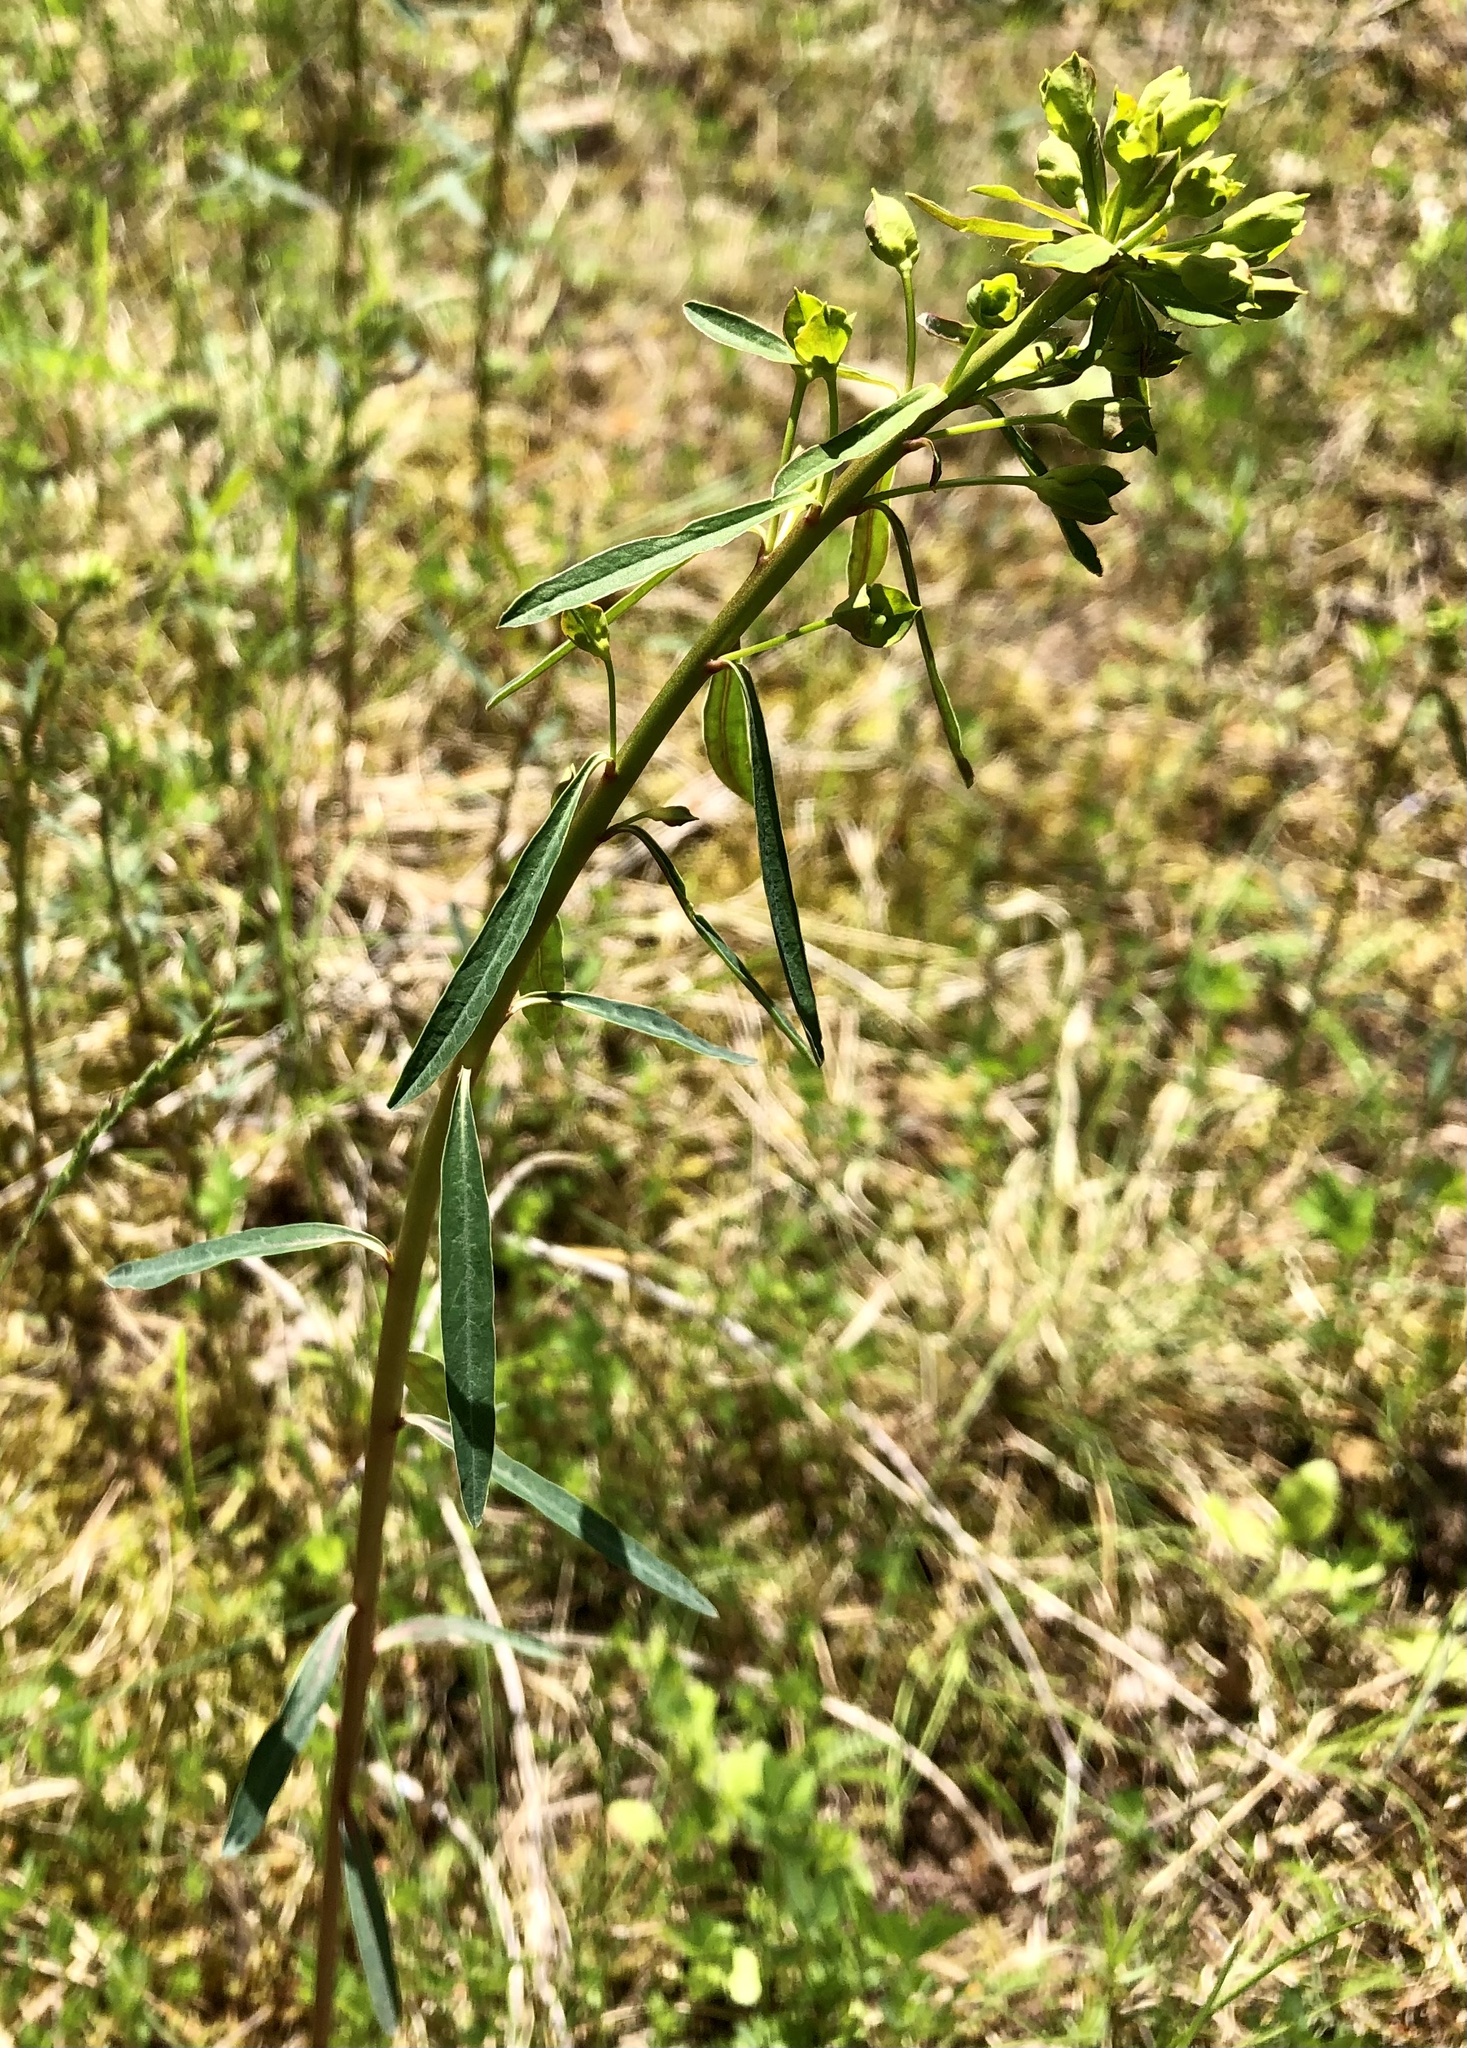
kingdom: Plantae
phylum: Tracheophyta
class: Magnoliopsida
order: Malpighiales
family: Euphorbiaceae
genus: Euphorbia
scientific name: Euphorbia esula
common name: Leafy spurge
